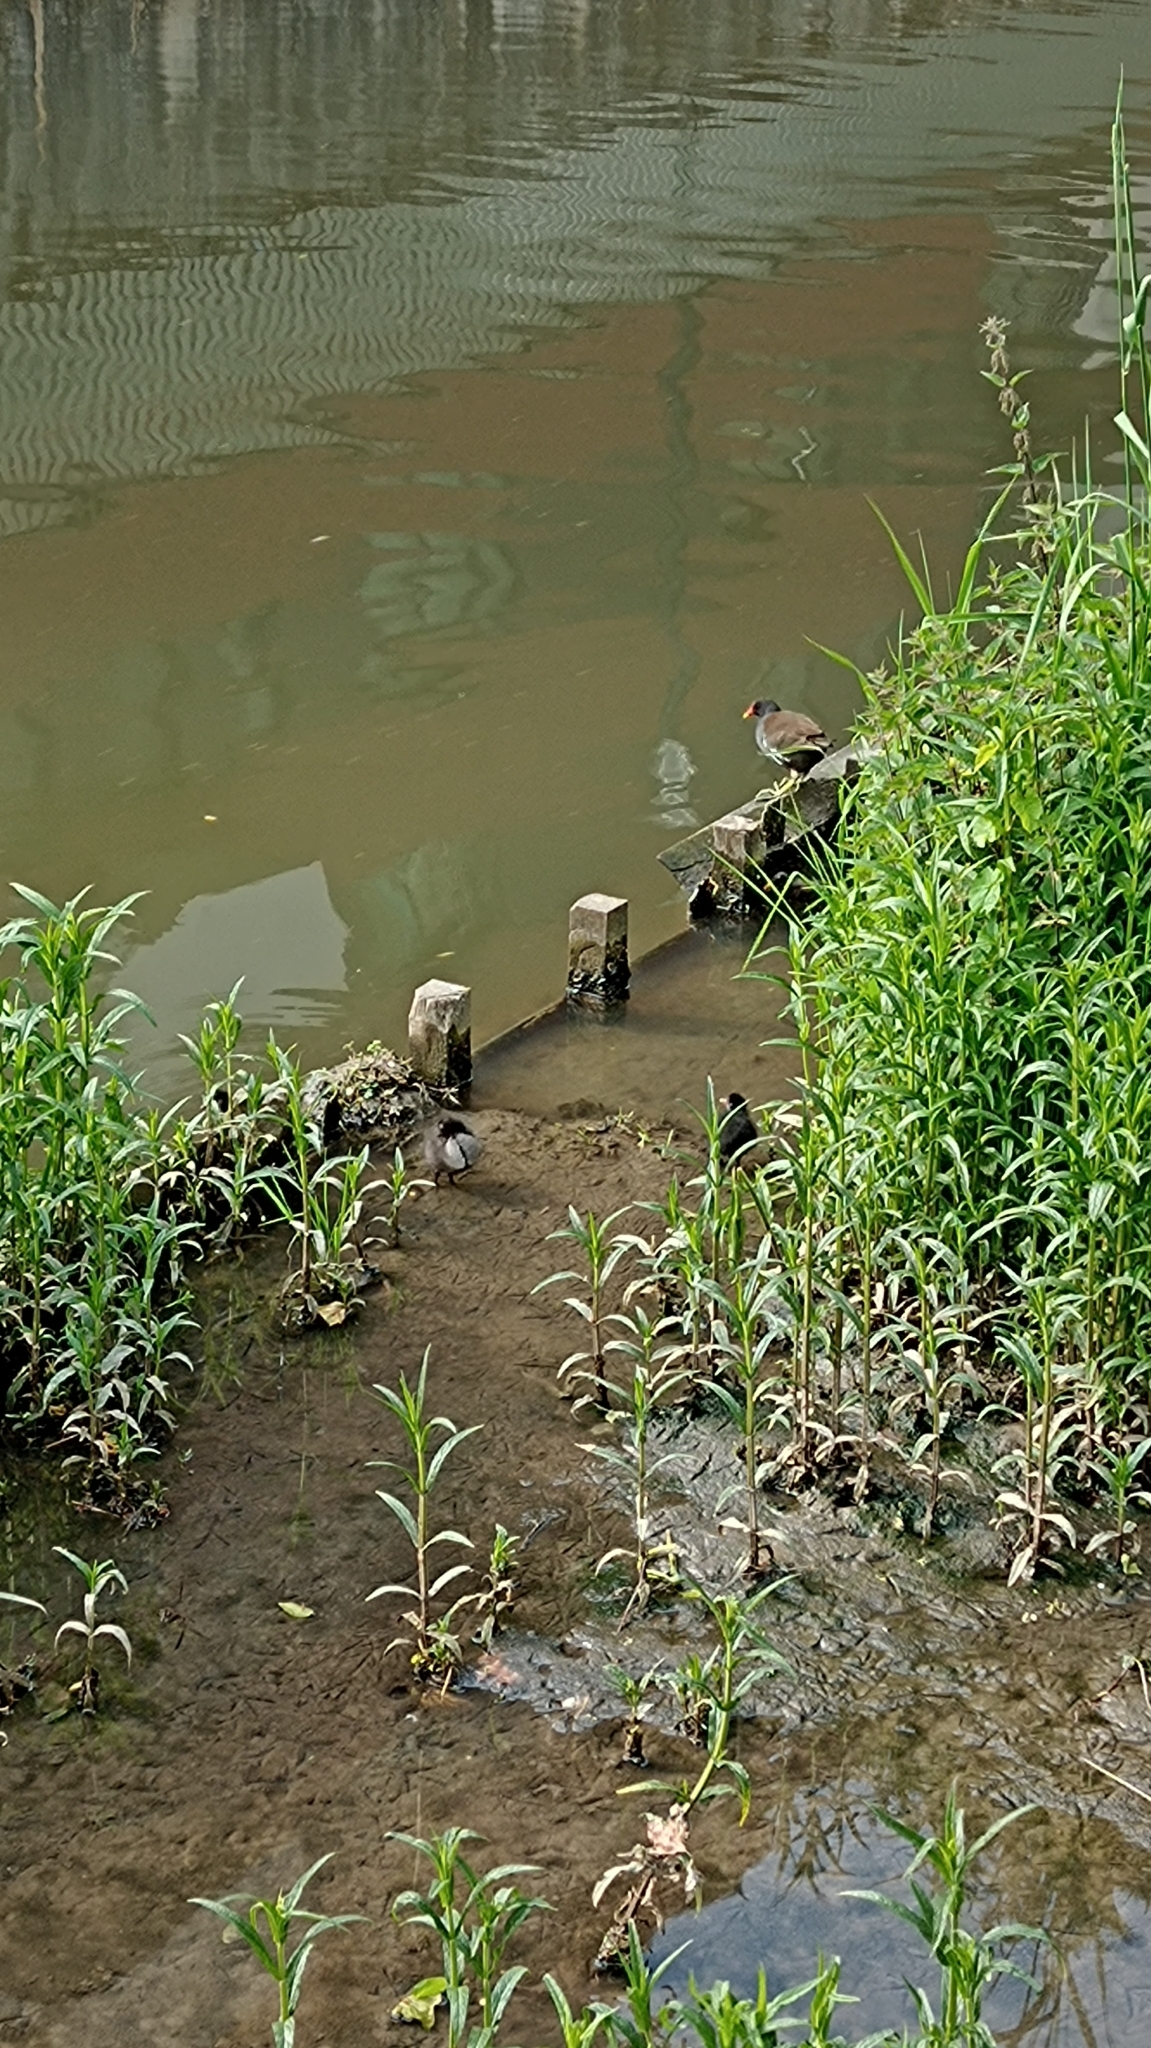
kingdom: Animalia
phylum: Chordata
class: Aves
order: Gruiformes
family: Rallidae
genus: Gallinula
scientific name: Gallinula chloropus
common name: Common moorhen
